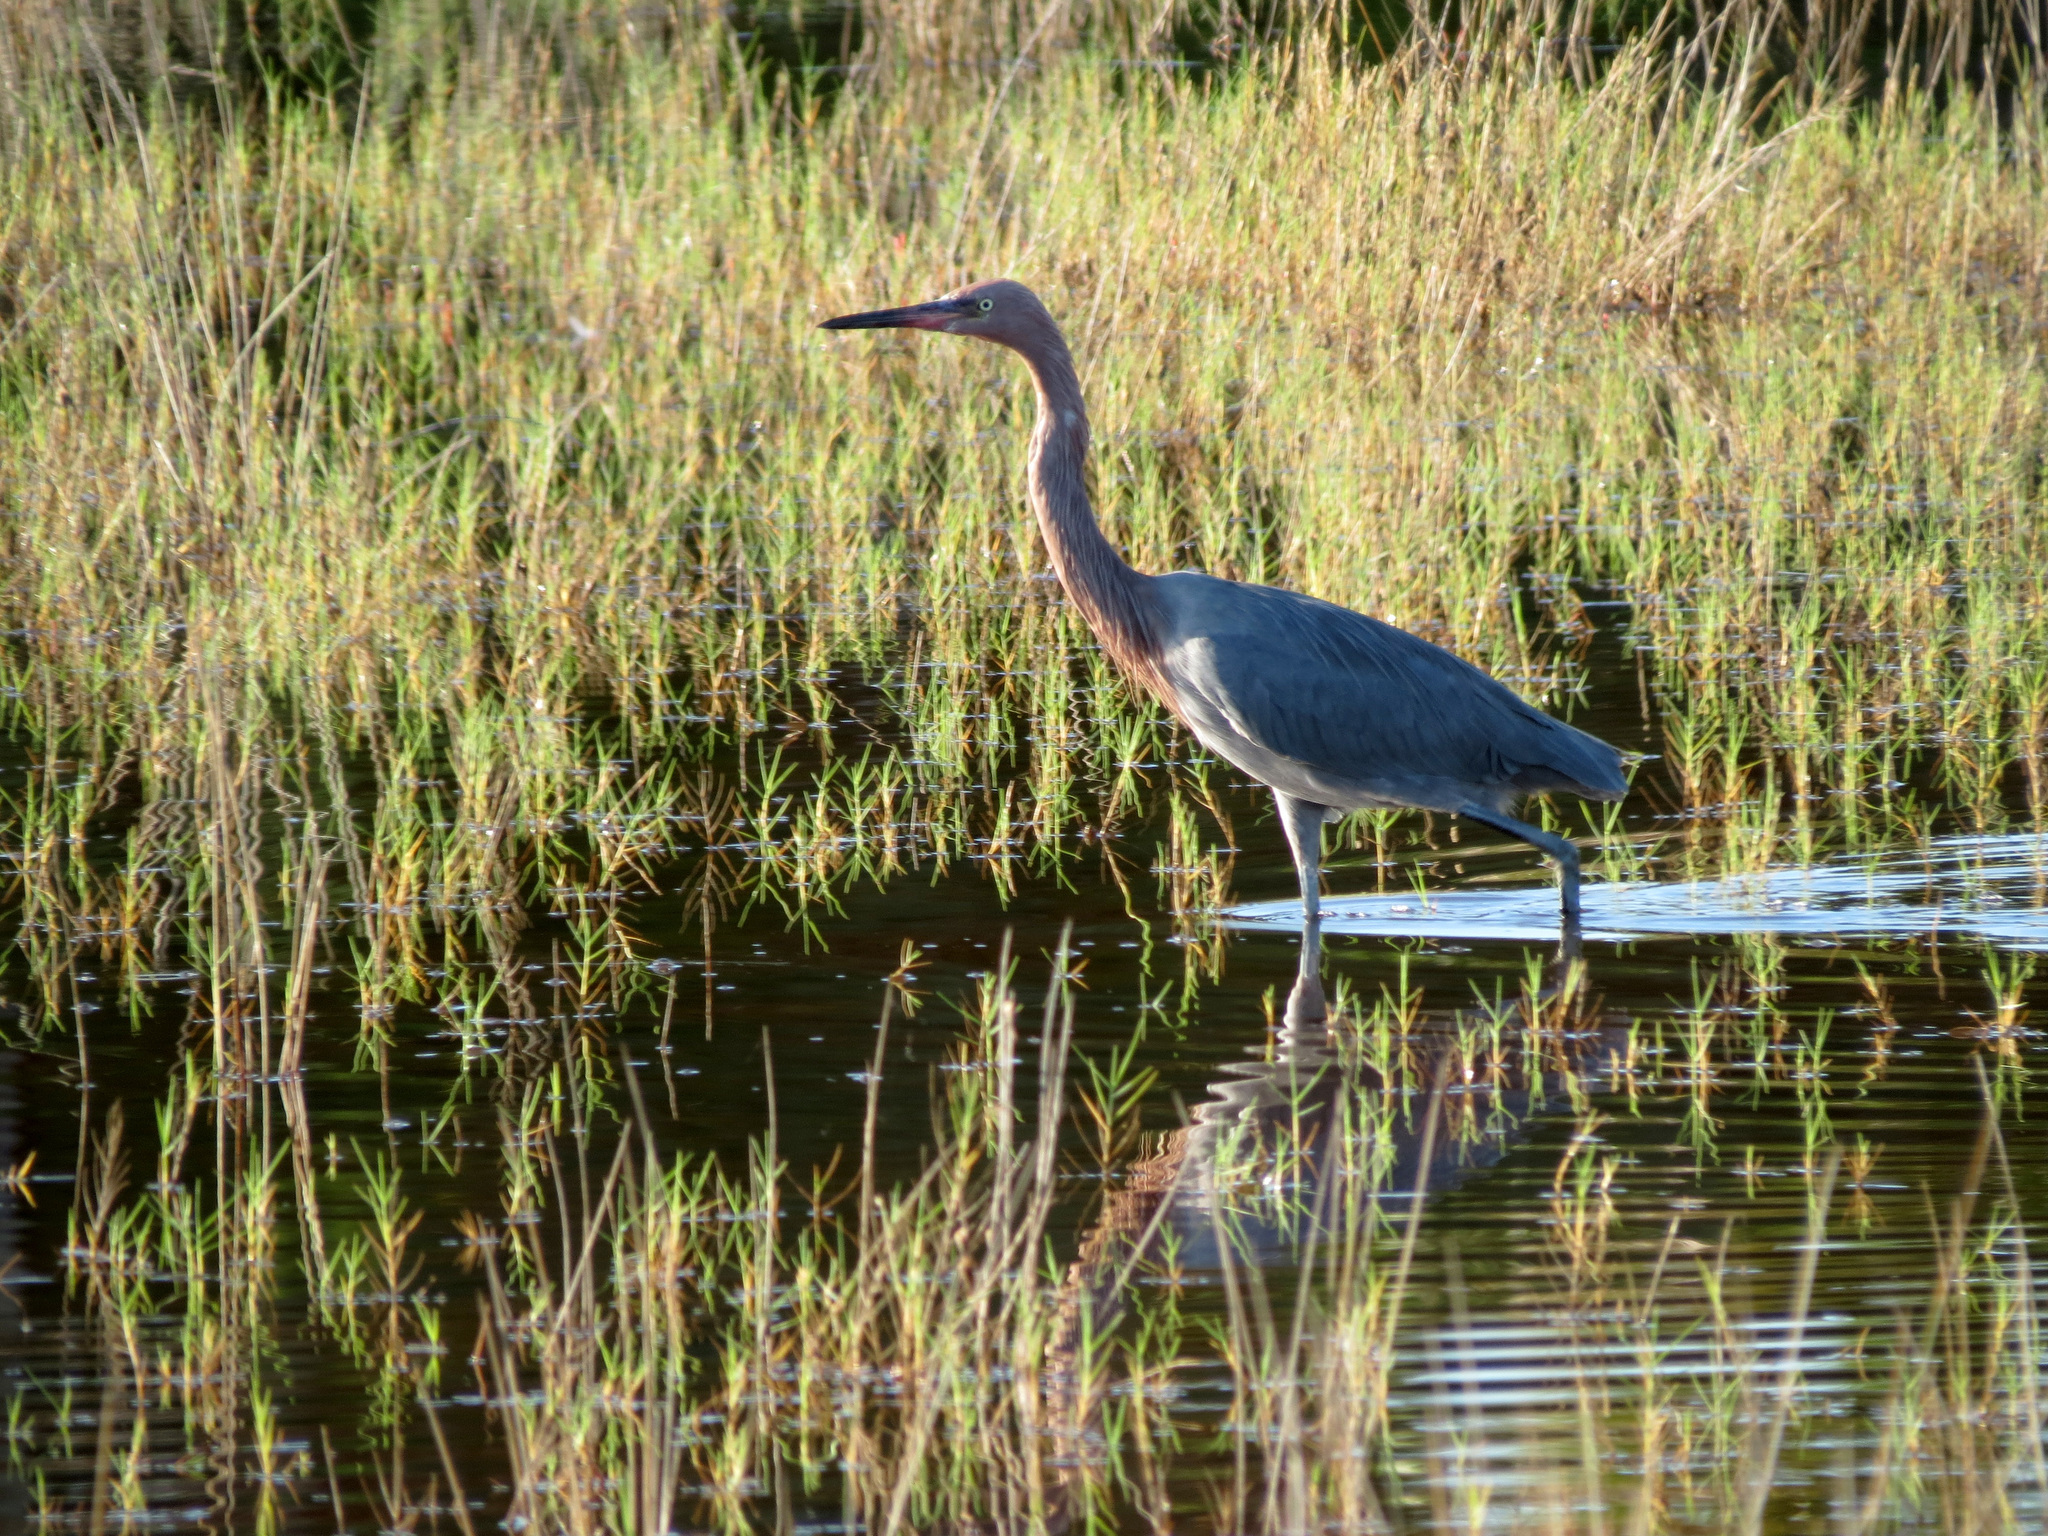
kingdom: Animalia
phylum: Chordata
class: Aves
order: Pelecaniformes
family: Ardeidae
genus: Egretta
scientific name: Egretta rufescens
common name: Reddish egret
